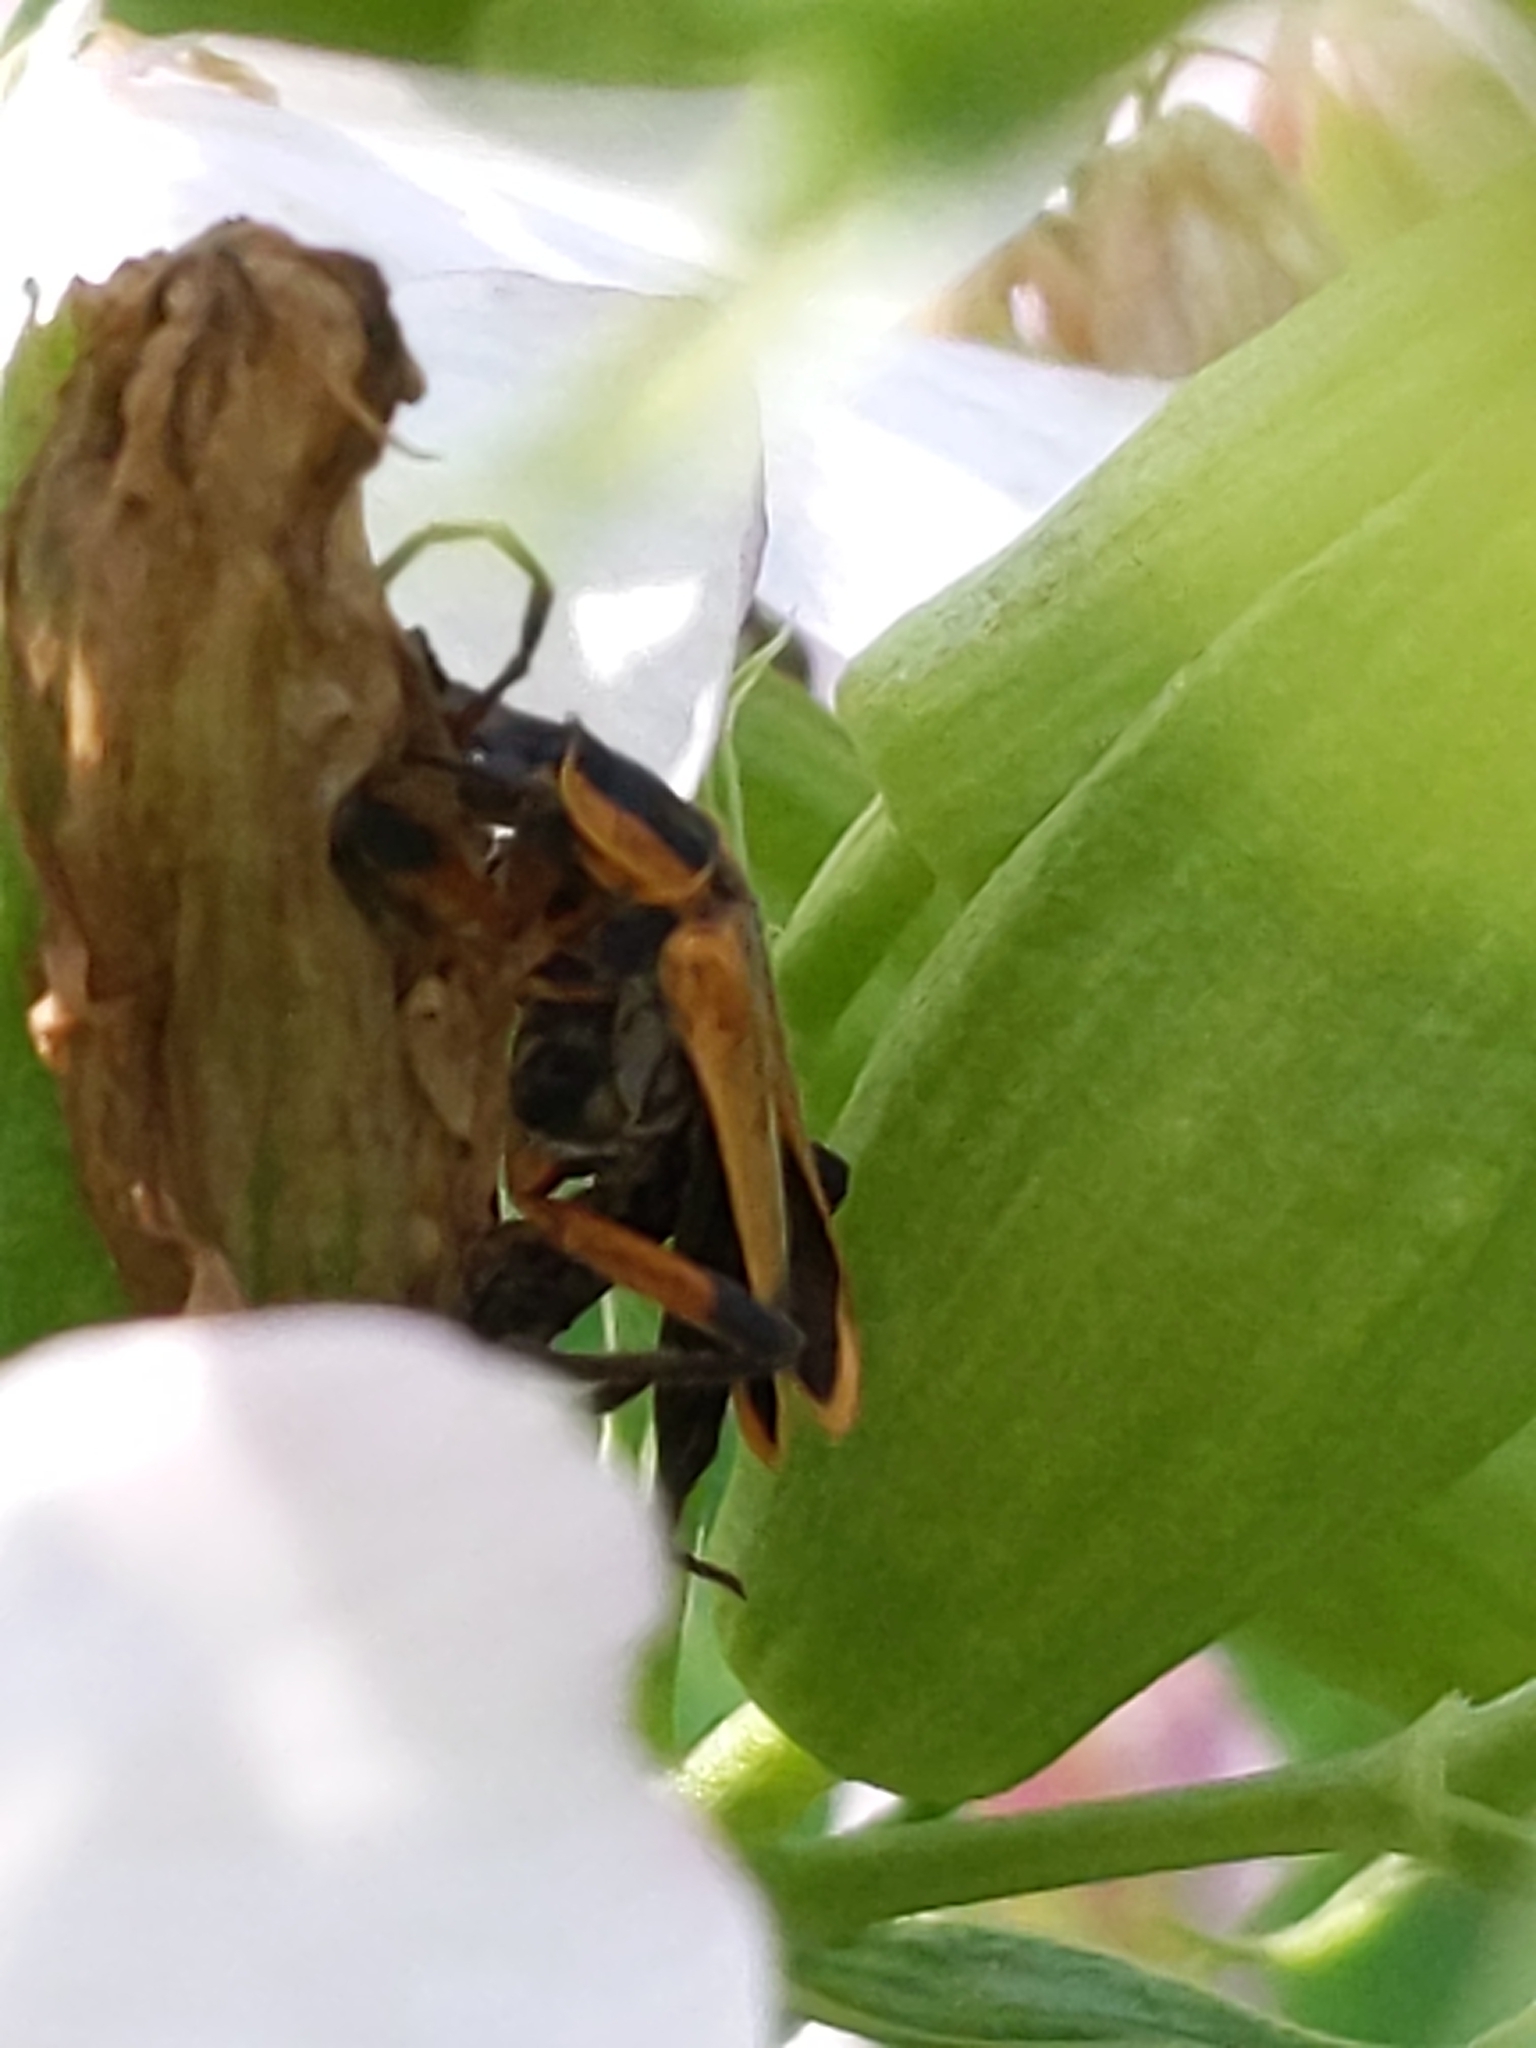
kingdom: Fungi
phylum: Entomophthoromycota
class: Entomophthoromycetes
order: Entomophthorales
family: Entomophthoraceae
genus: Eryniopsis
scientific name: Eryniopsis lampyridarum
